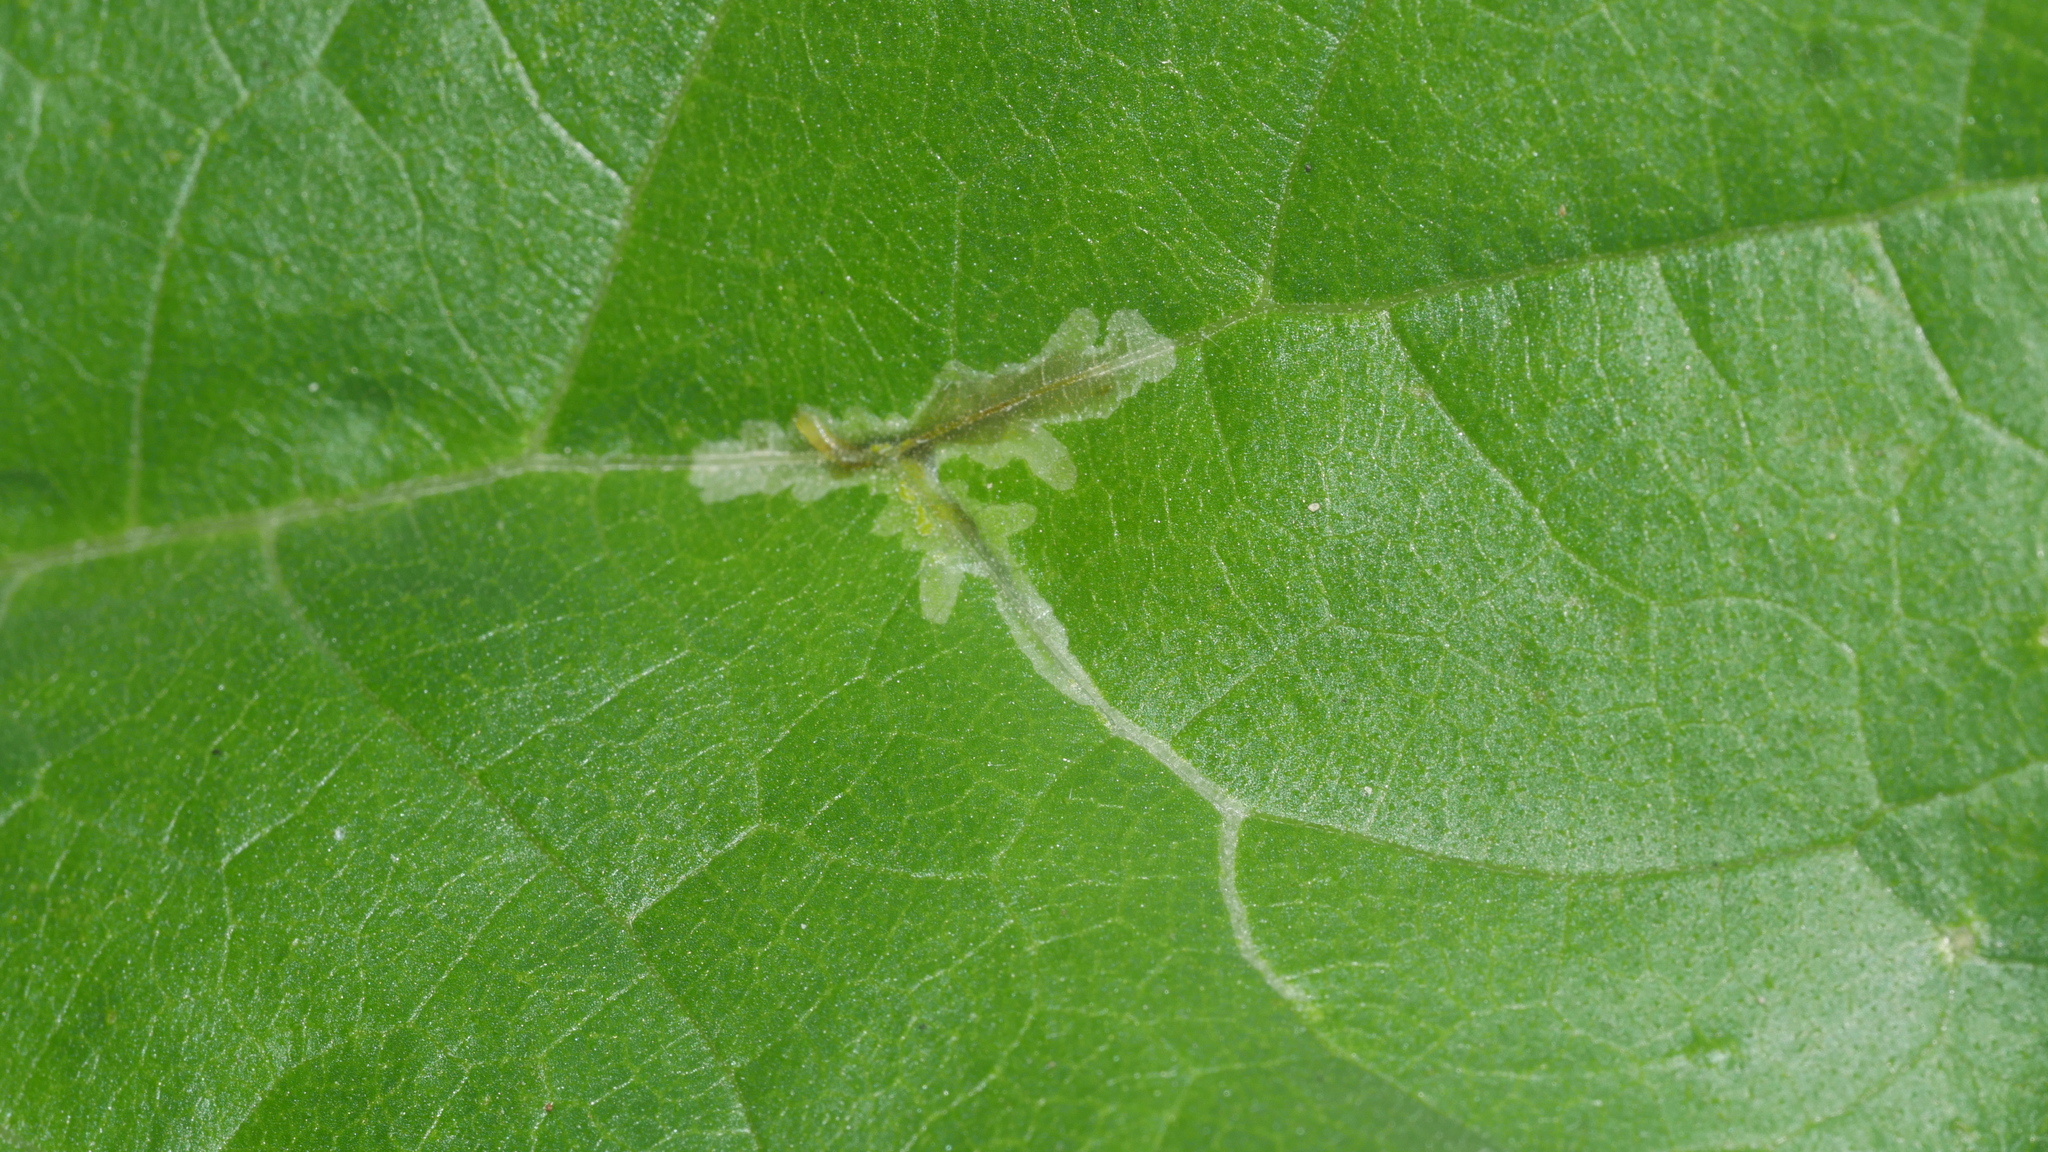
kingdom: Animalia
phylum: Arthropoda
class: Insecta
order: Diptera
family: Agromyzidae
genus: Calycomyza
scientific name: Calycomyza platyptera
